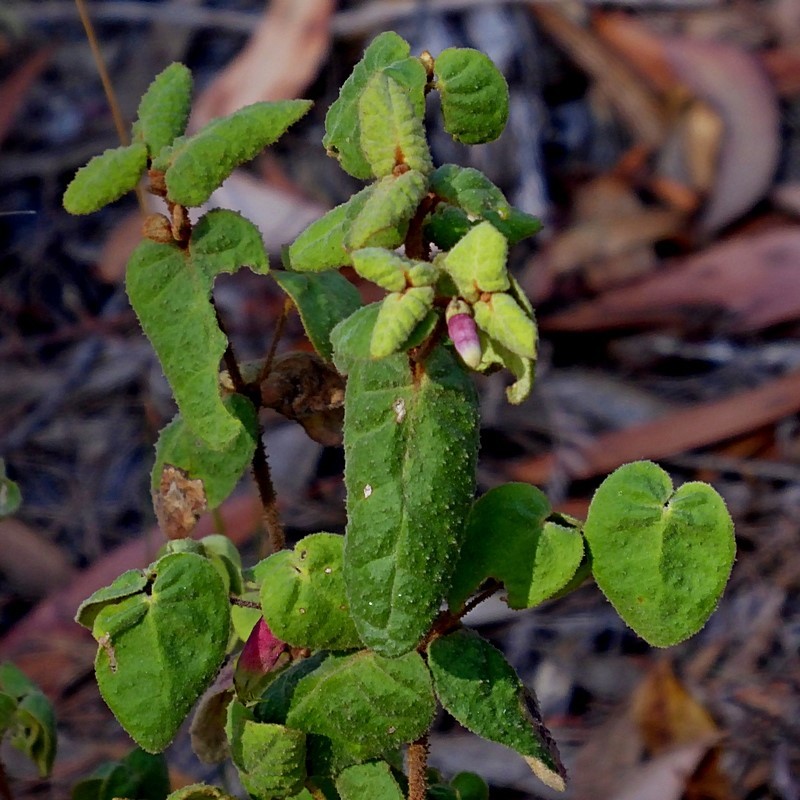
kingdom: Plantae
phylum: Tracheophyta
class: Magnoliopsida
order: Sapindales
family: Rutaceae
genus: Correa
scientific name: Correa reflexa
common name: Common correa
